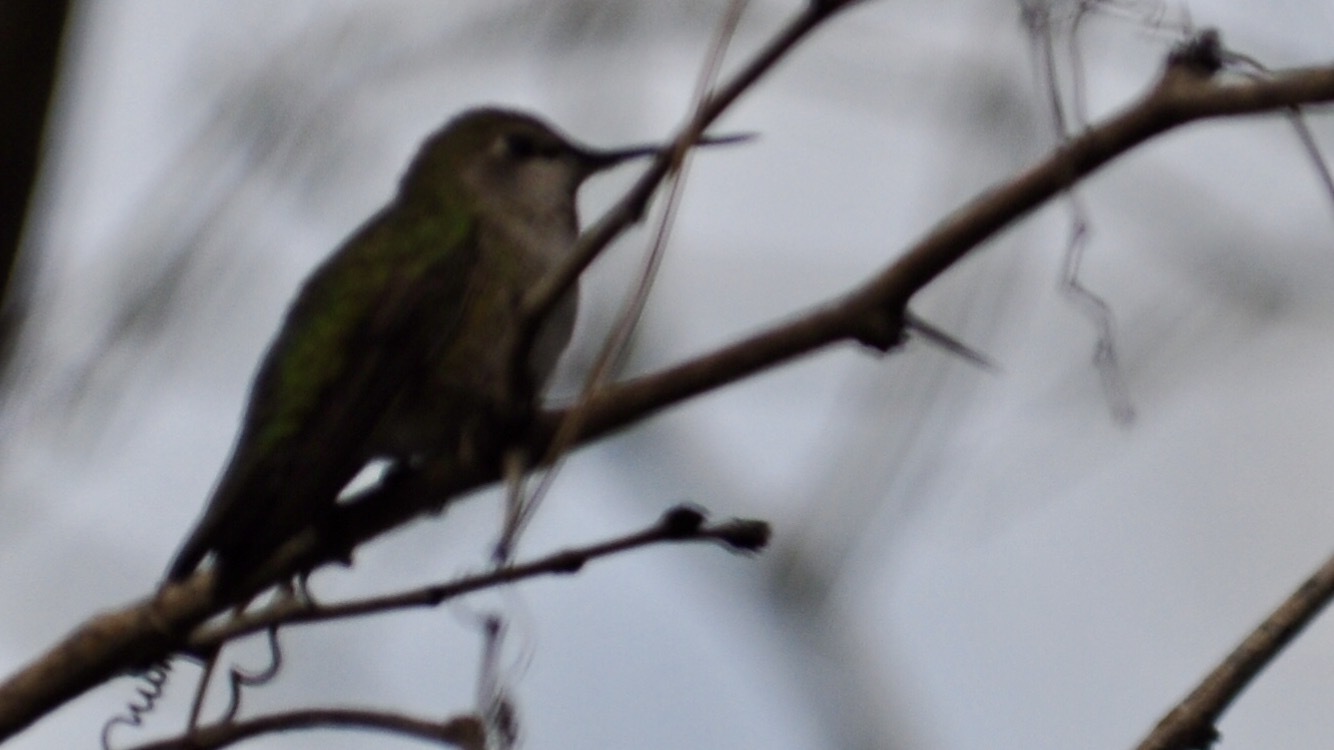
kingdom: Animalia
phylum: Chordata
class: Aves
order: Apodiformes
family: Trochilidae
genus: Calypte
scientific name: Calypte anna
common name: Anna's hummingbird
